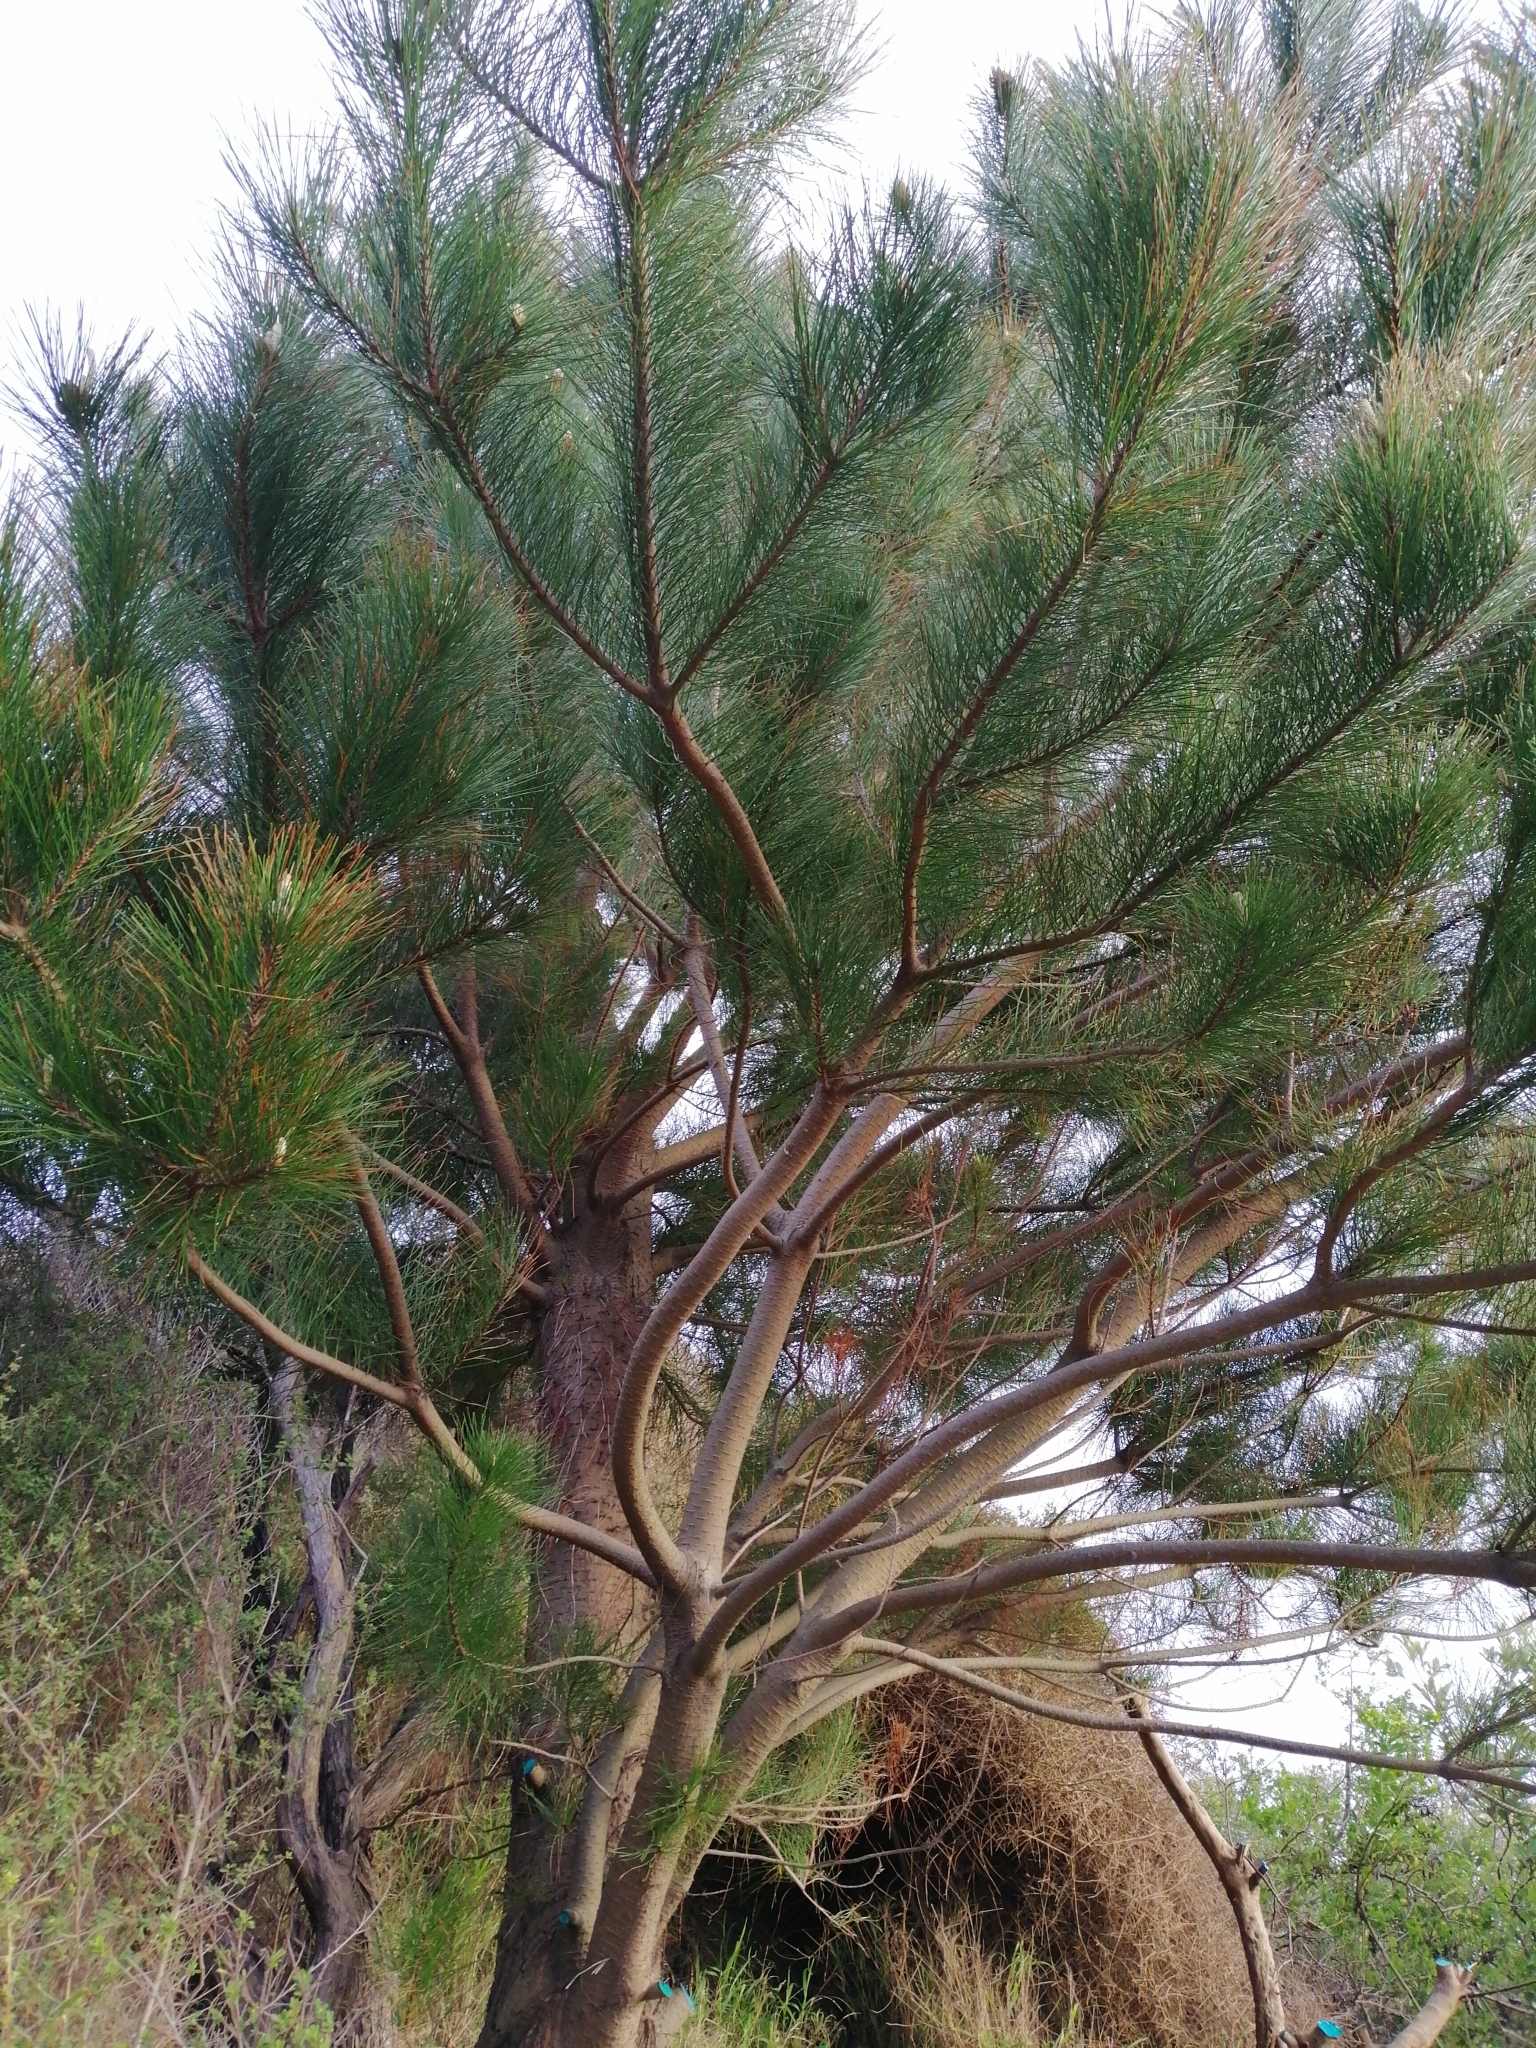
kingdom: Plantae
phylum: Tracheophyta
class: Pinopsida
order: Pinales
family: Pinaceae
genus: Pinus
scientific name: Pinus radiata
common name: Monterey pine
